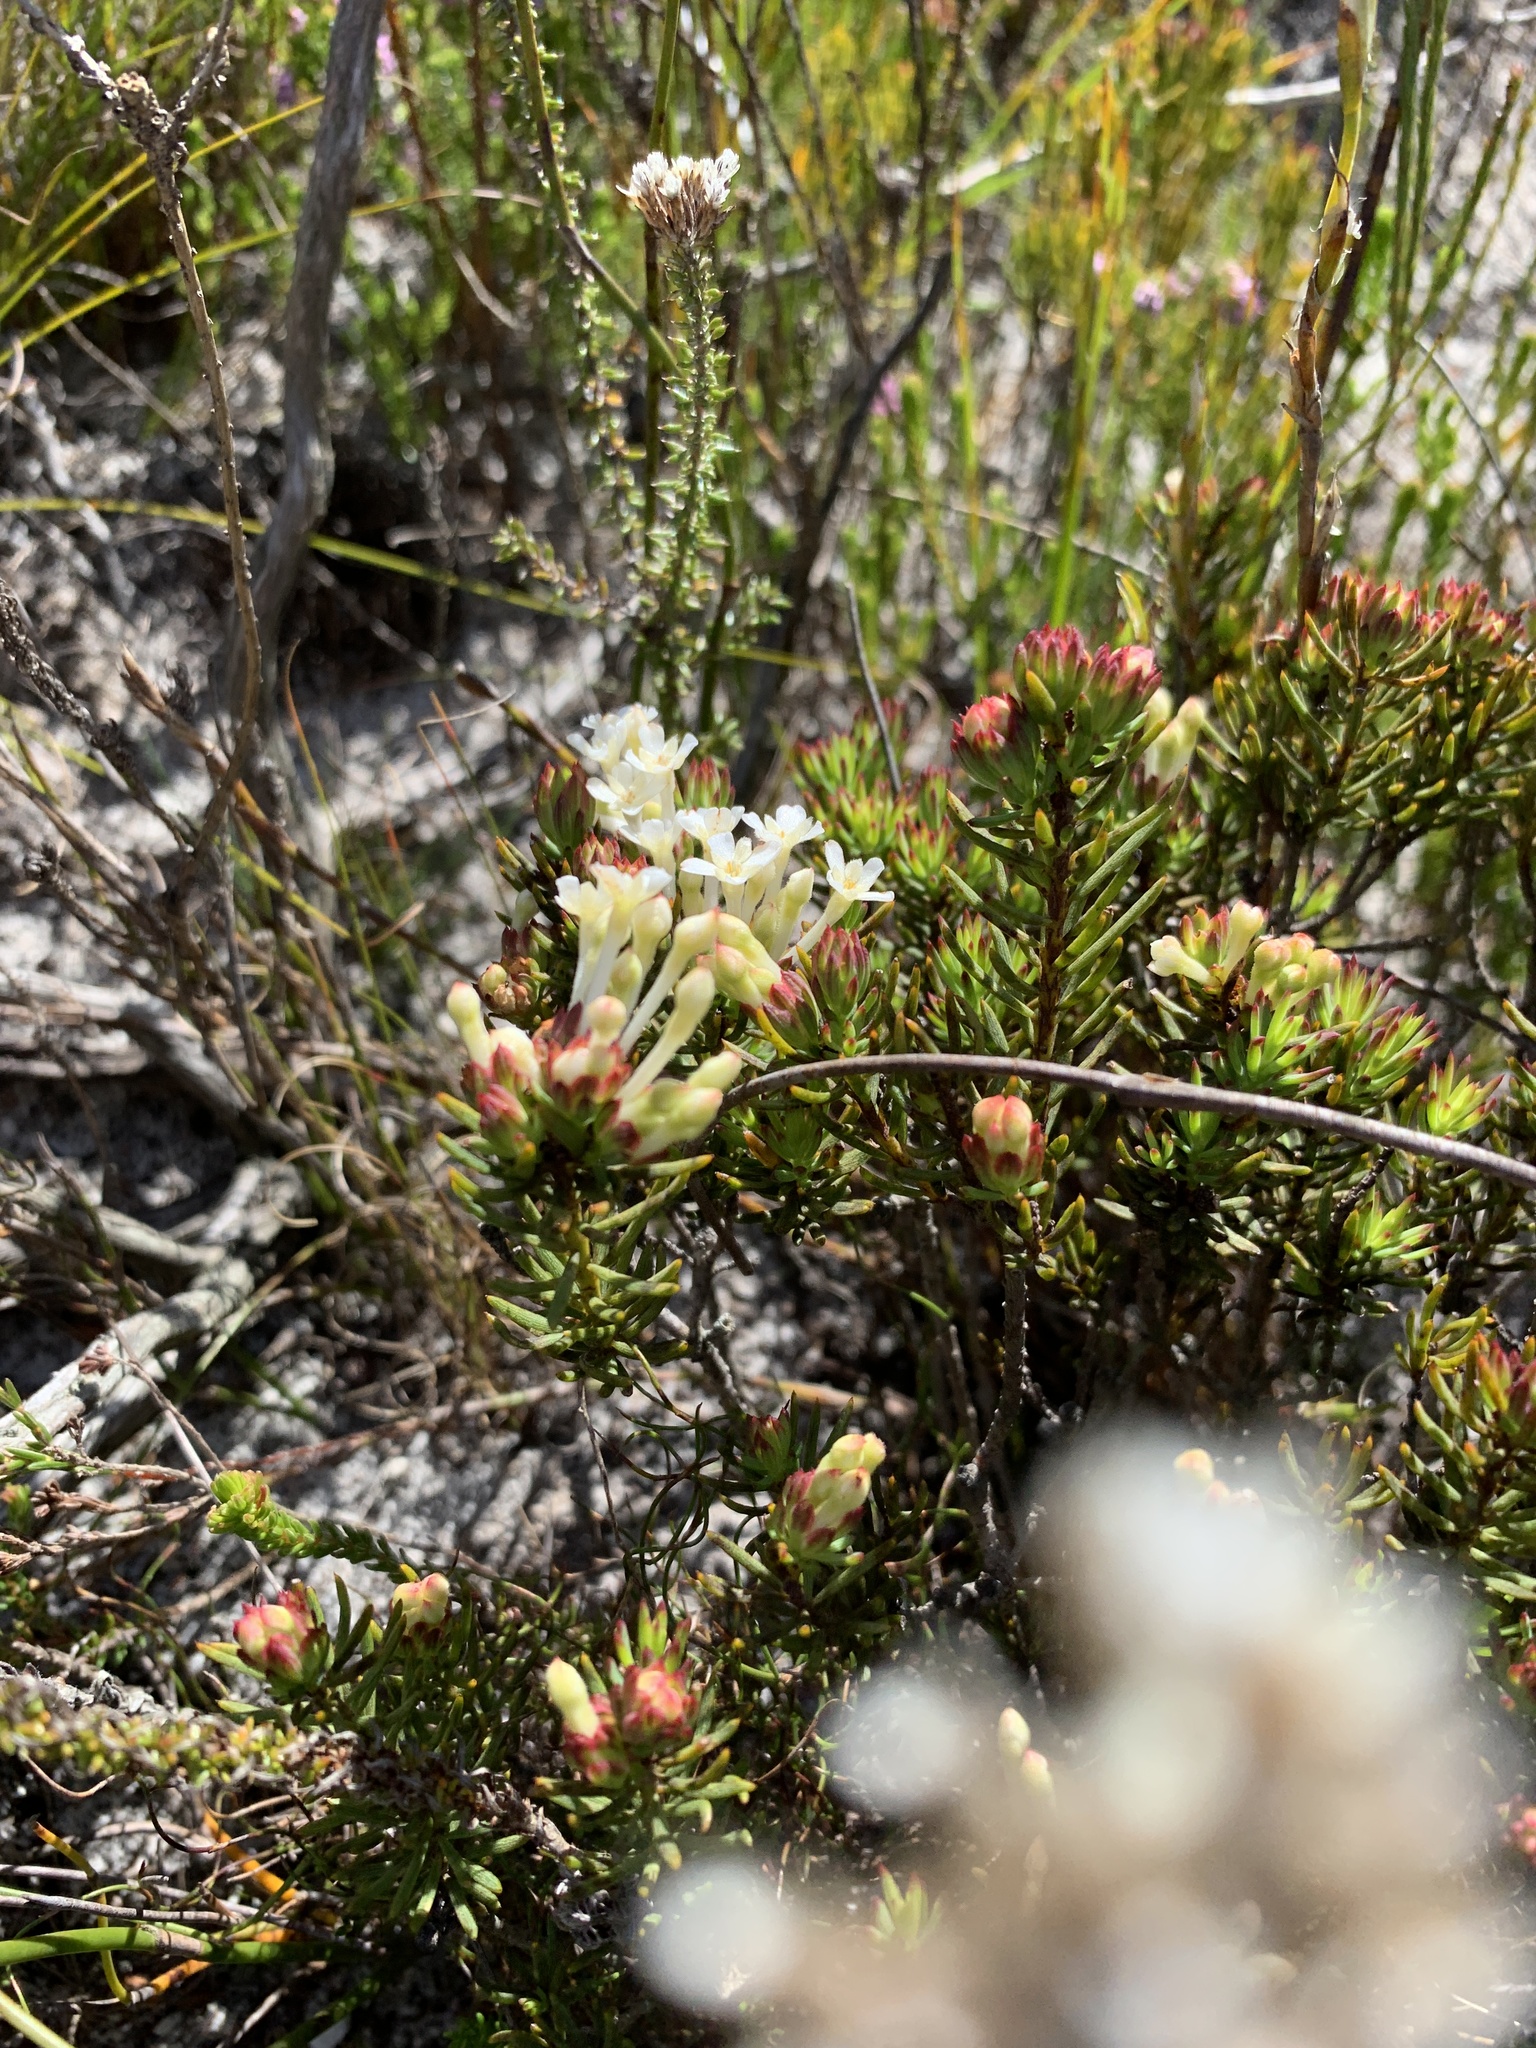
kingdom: Plantae
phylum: Tracheophyta
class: Magnoliopsida
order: Malvales
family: Thymelaeaceae
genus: Gnidia
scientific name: Gnidia pinifolia
